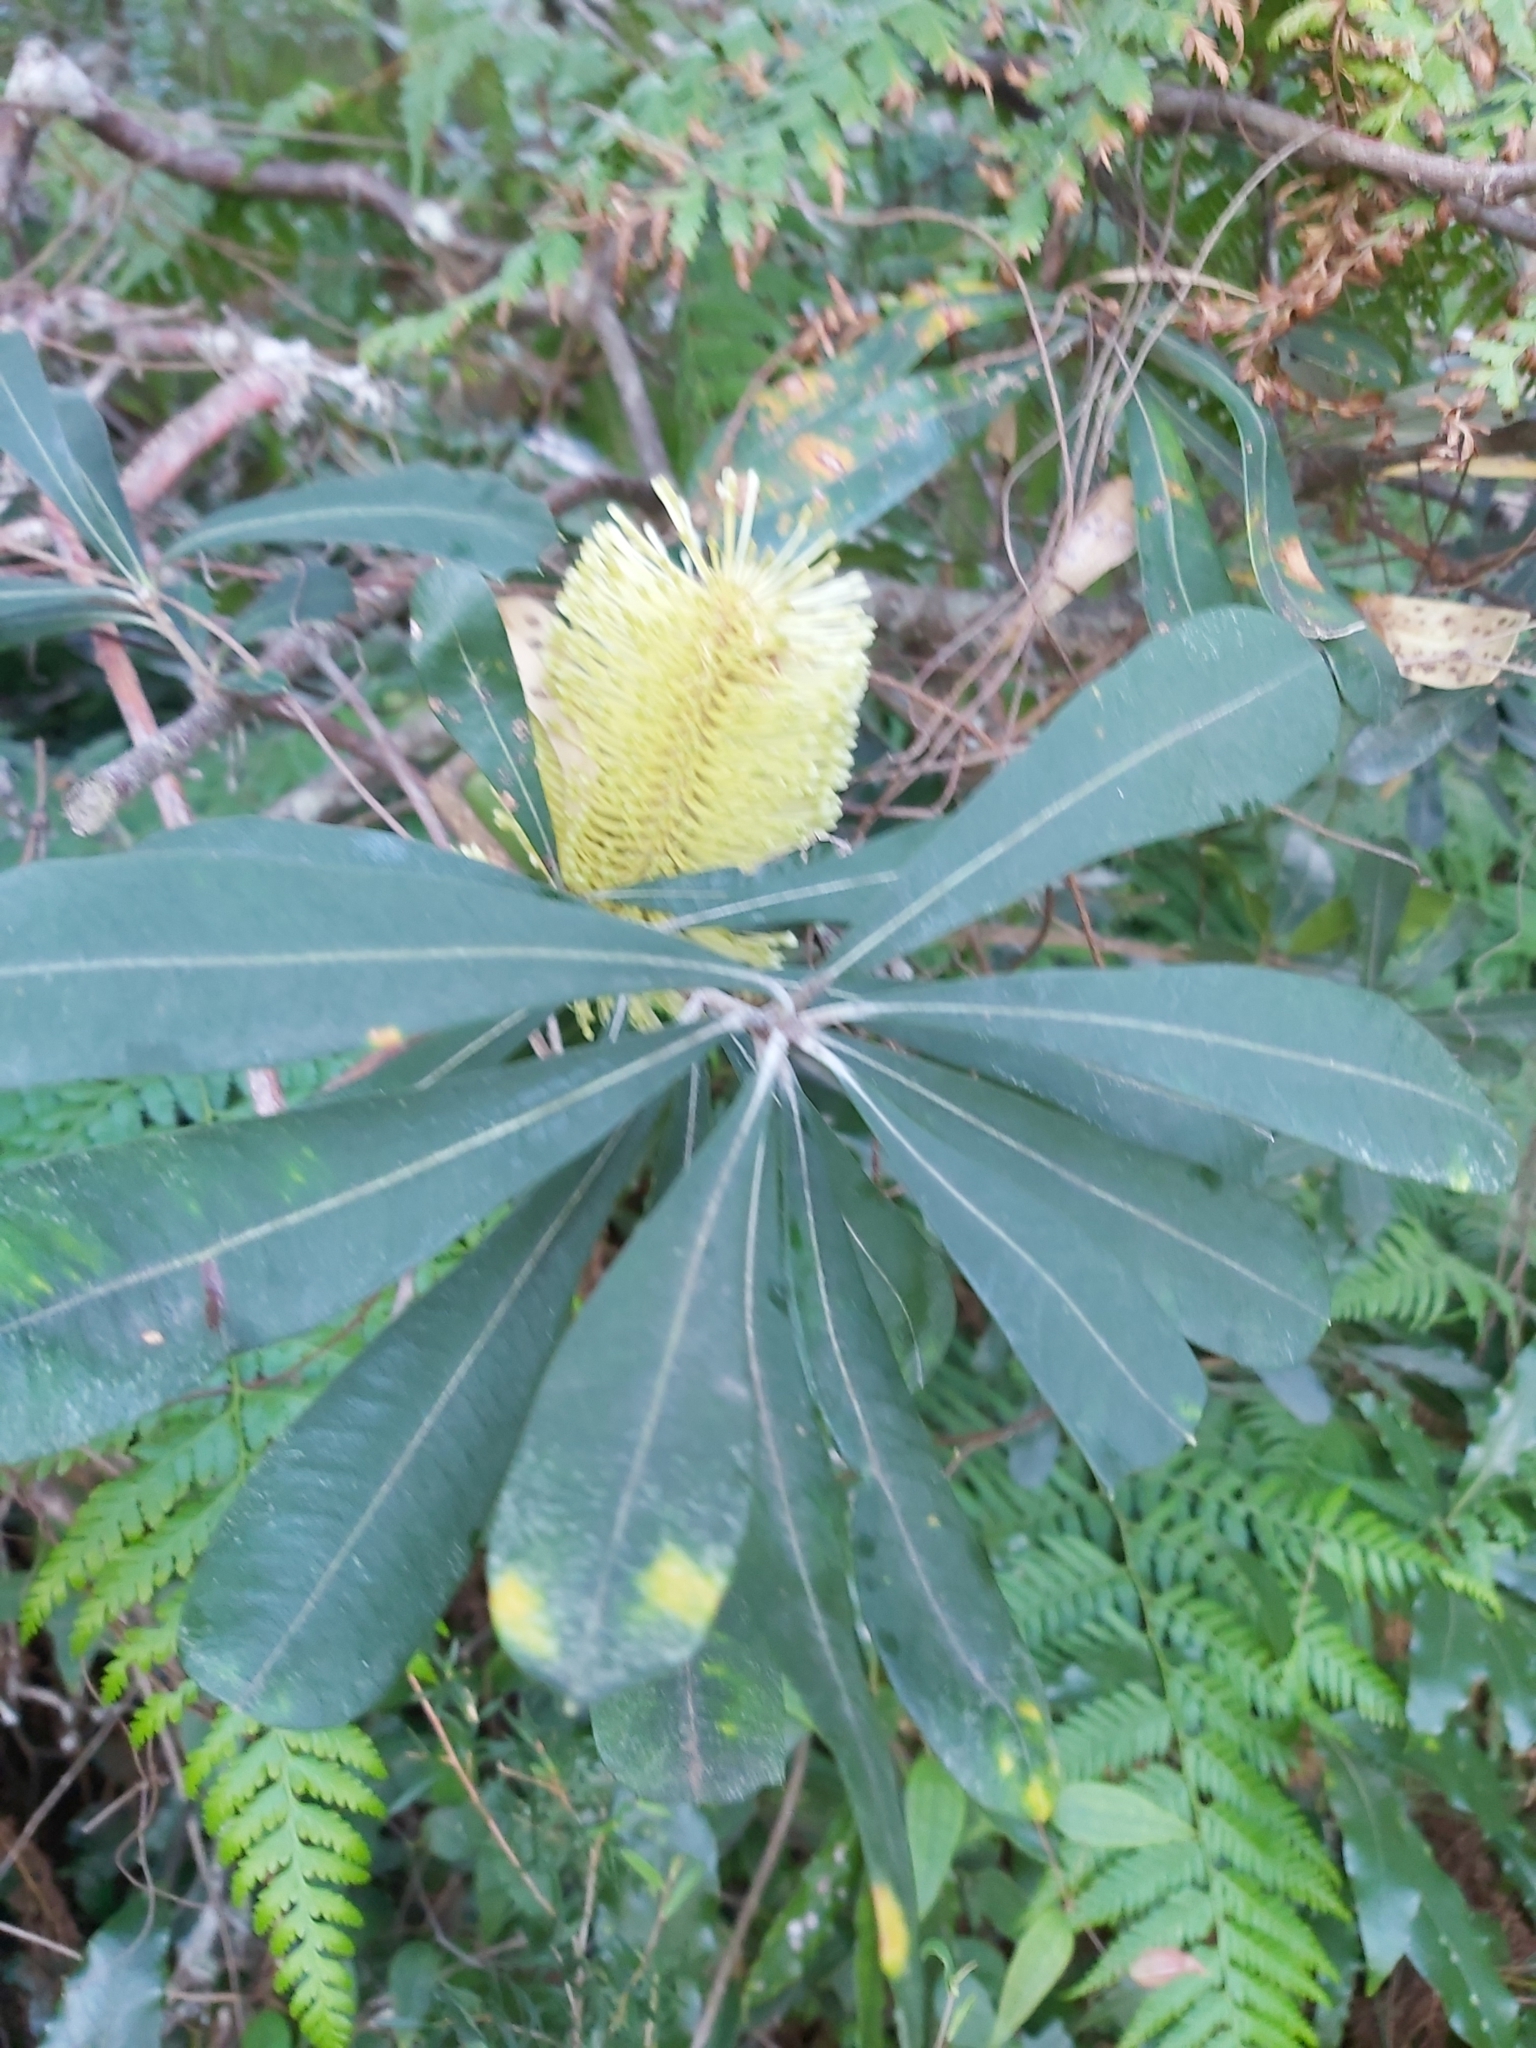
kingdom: Plantae
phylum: Tracheophyta
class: Magnoliopsida
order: Proteales
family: Proteaceae
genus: Banksia
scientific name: Banksia integrifolia
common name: White-honeysuckle
